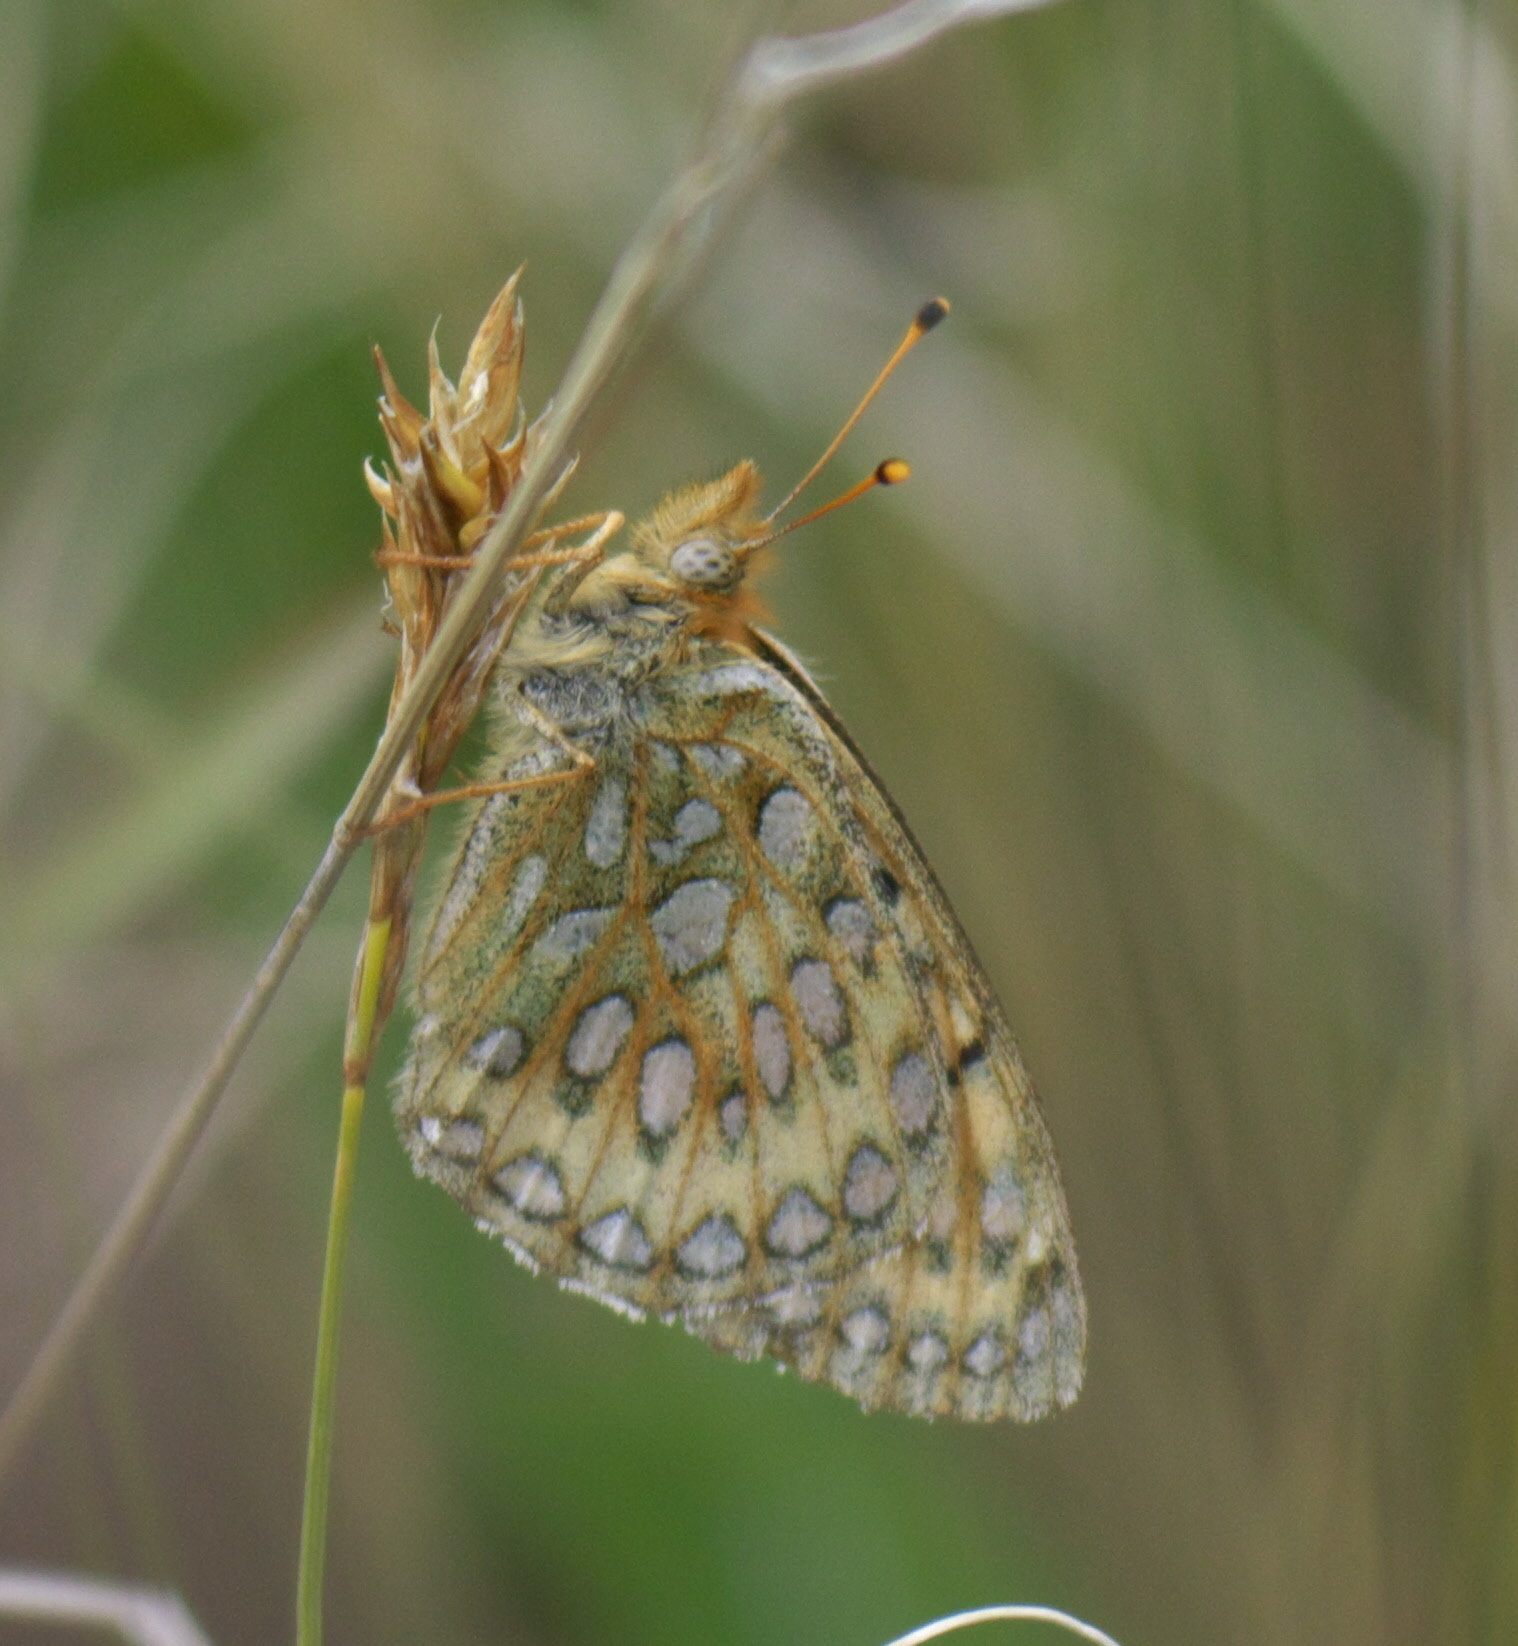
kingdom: Animalia
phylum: Arthropoda
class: Insecta
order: Lepidoptera
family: Nymphalidae
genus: Speyeria
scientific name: Speyeria mormonia
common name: Mormon fritillary
